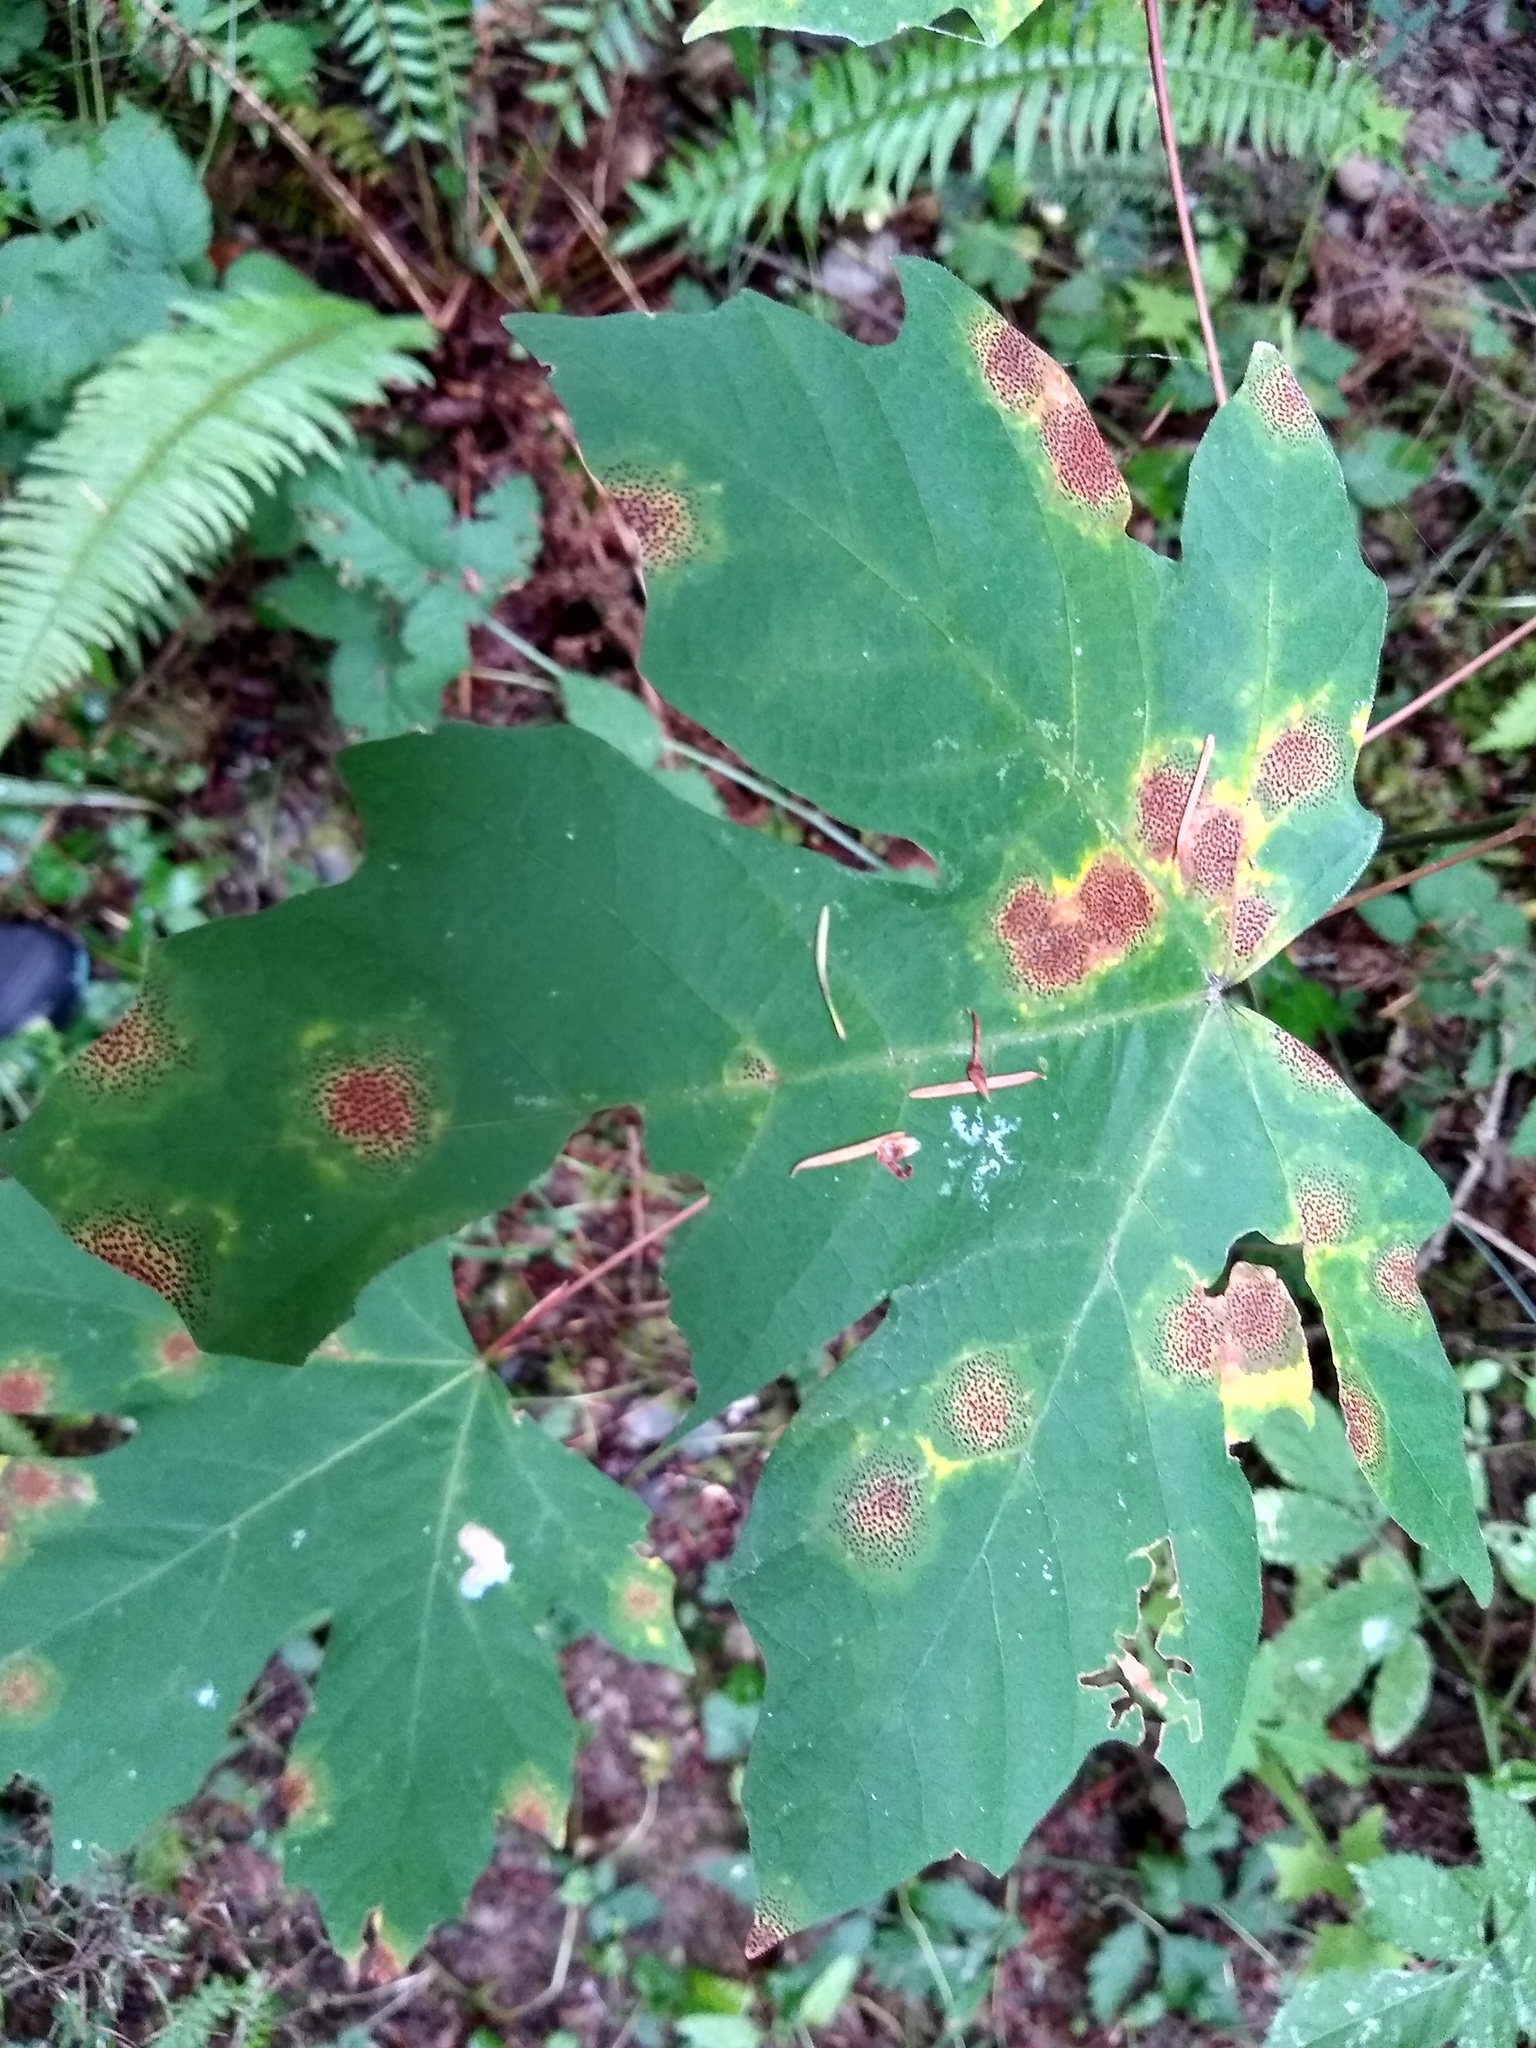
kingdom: Fungi
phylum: Ascomycota
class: Leotiomycetes
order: Rhytismatales
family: Rhytismataceae
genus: Rhytisma
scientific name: Rhytisma punctatum
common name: Speckled tar spot
